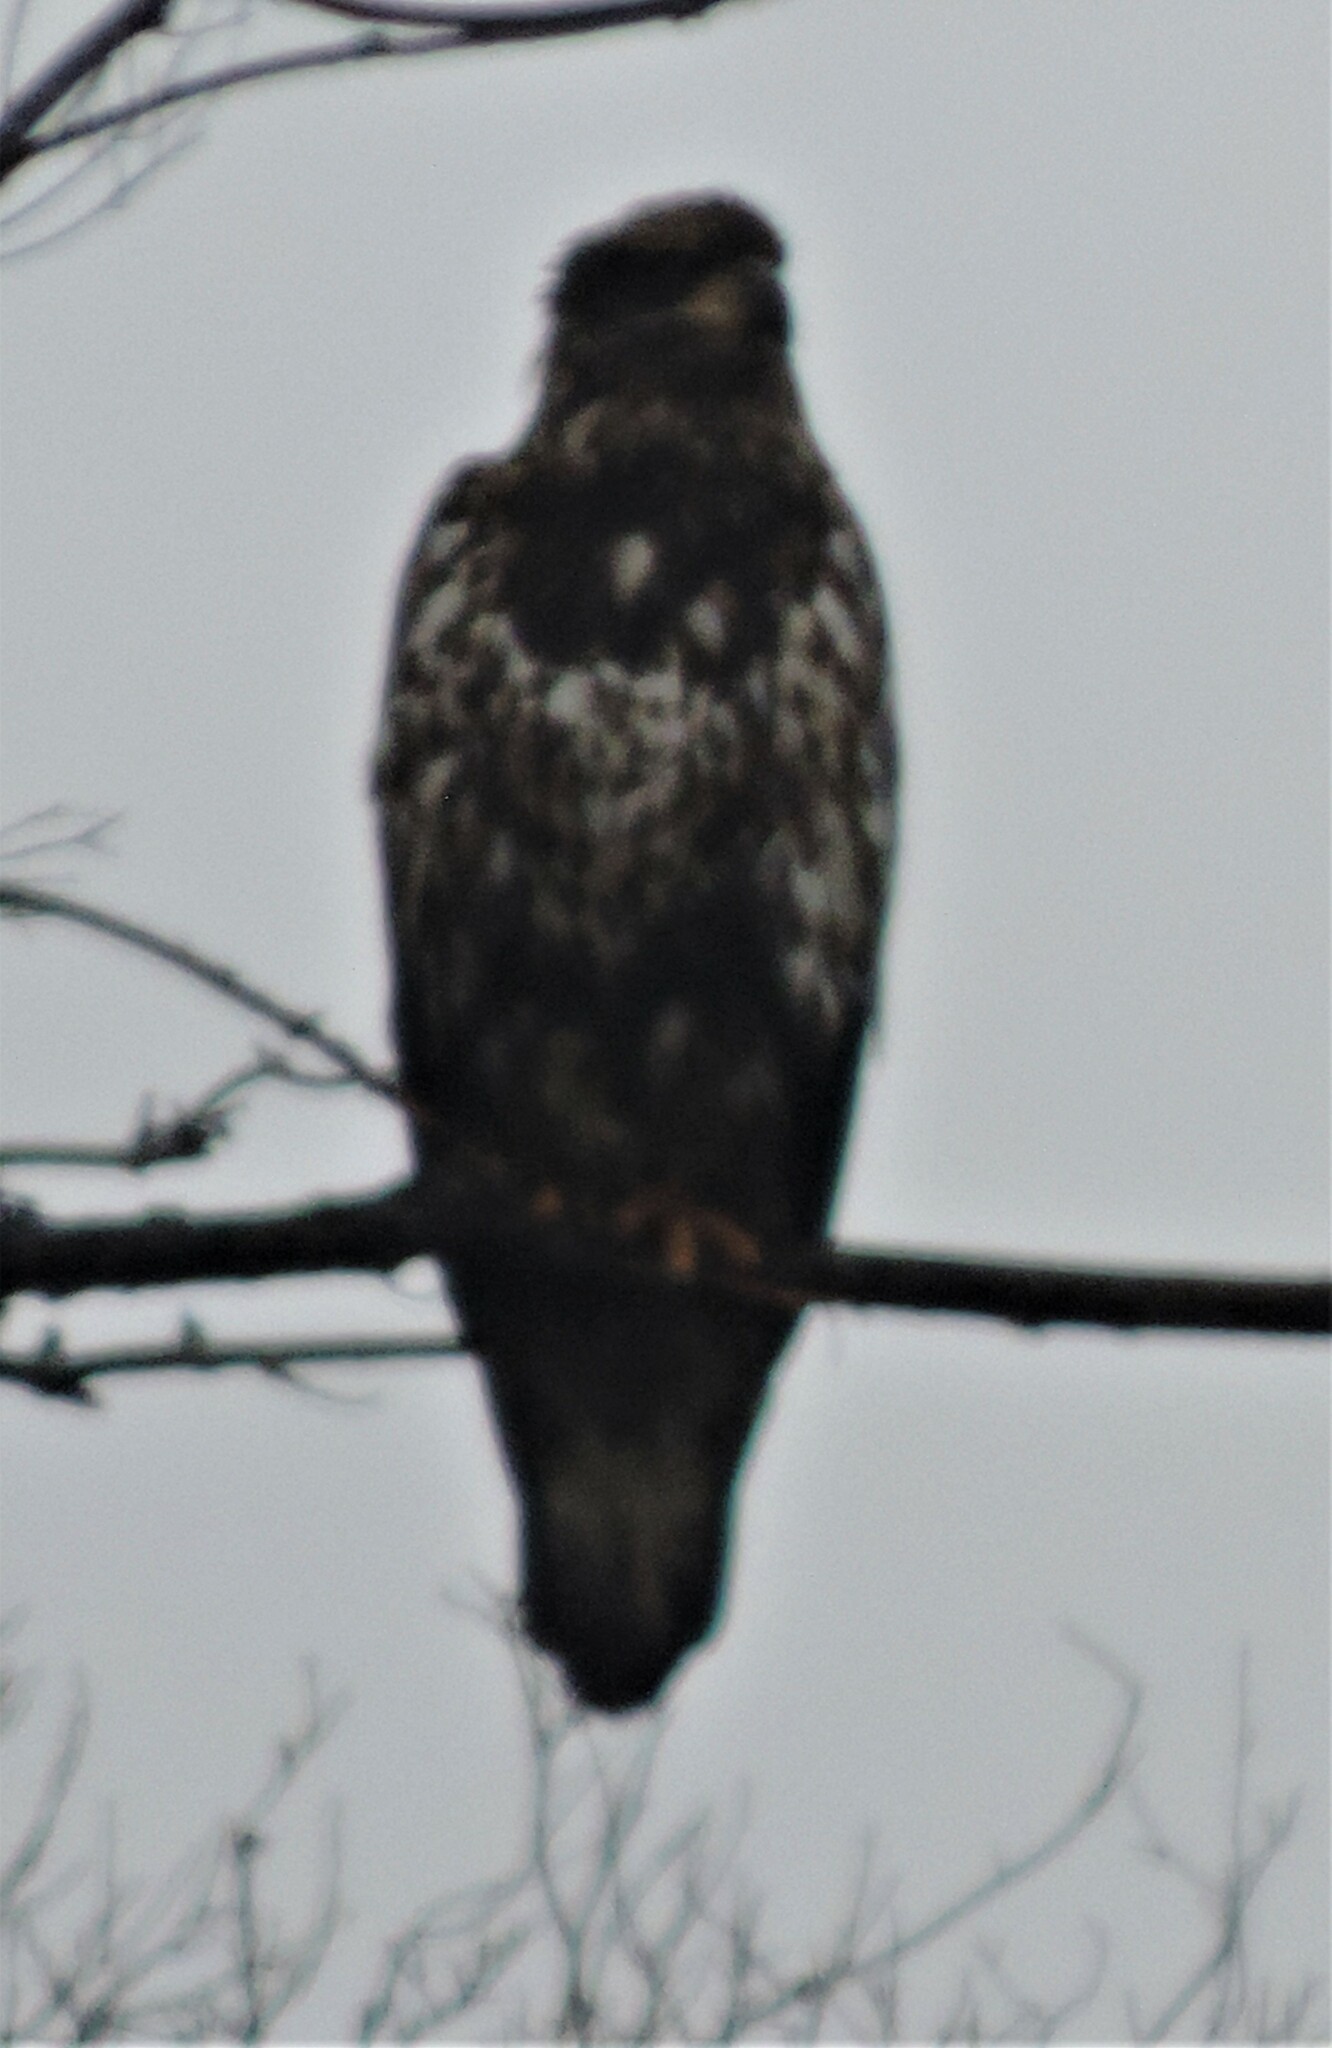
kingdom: Animalia
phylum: Chordata
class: Aves
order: Accipitriformes
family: Accipitridae
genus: Haliaeetus
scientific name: Haliaeetus leucocephalus
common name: Bald eagle
